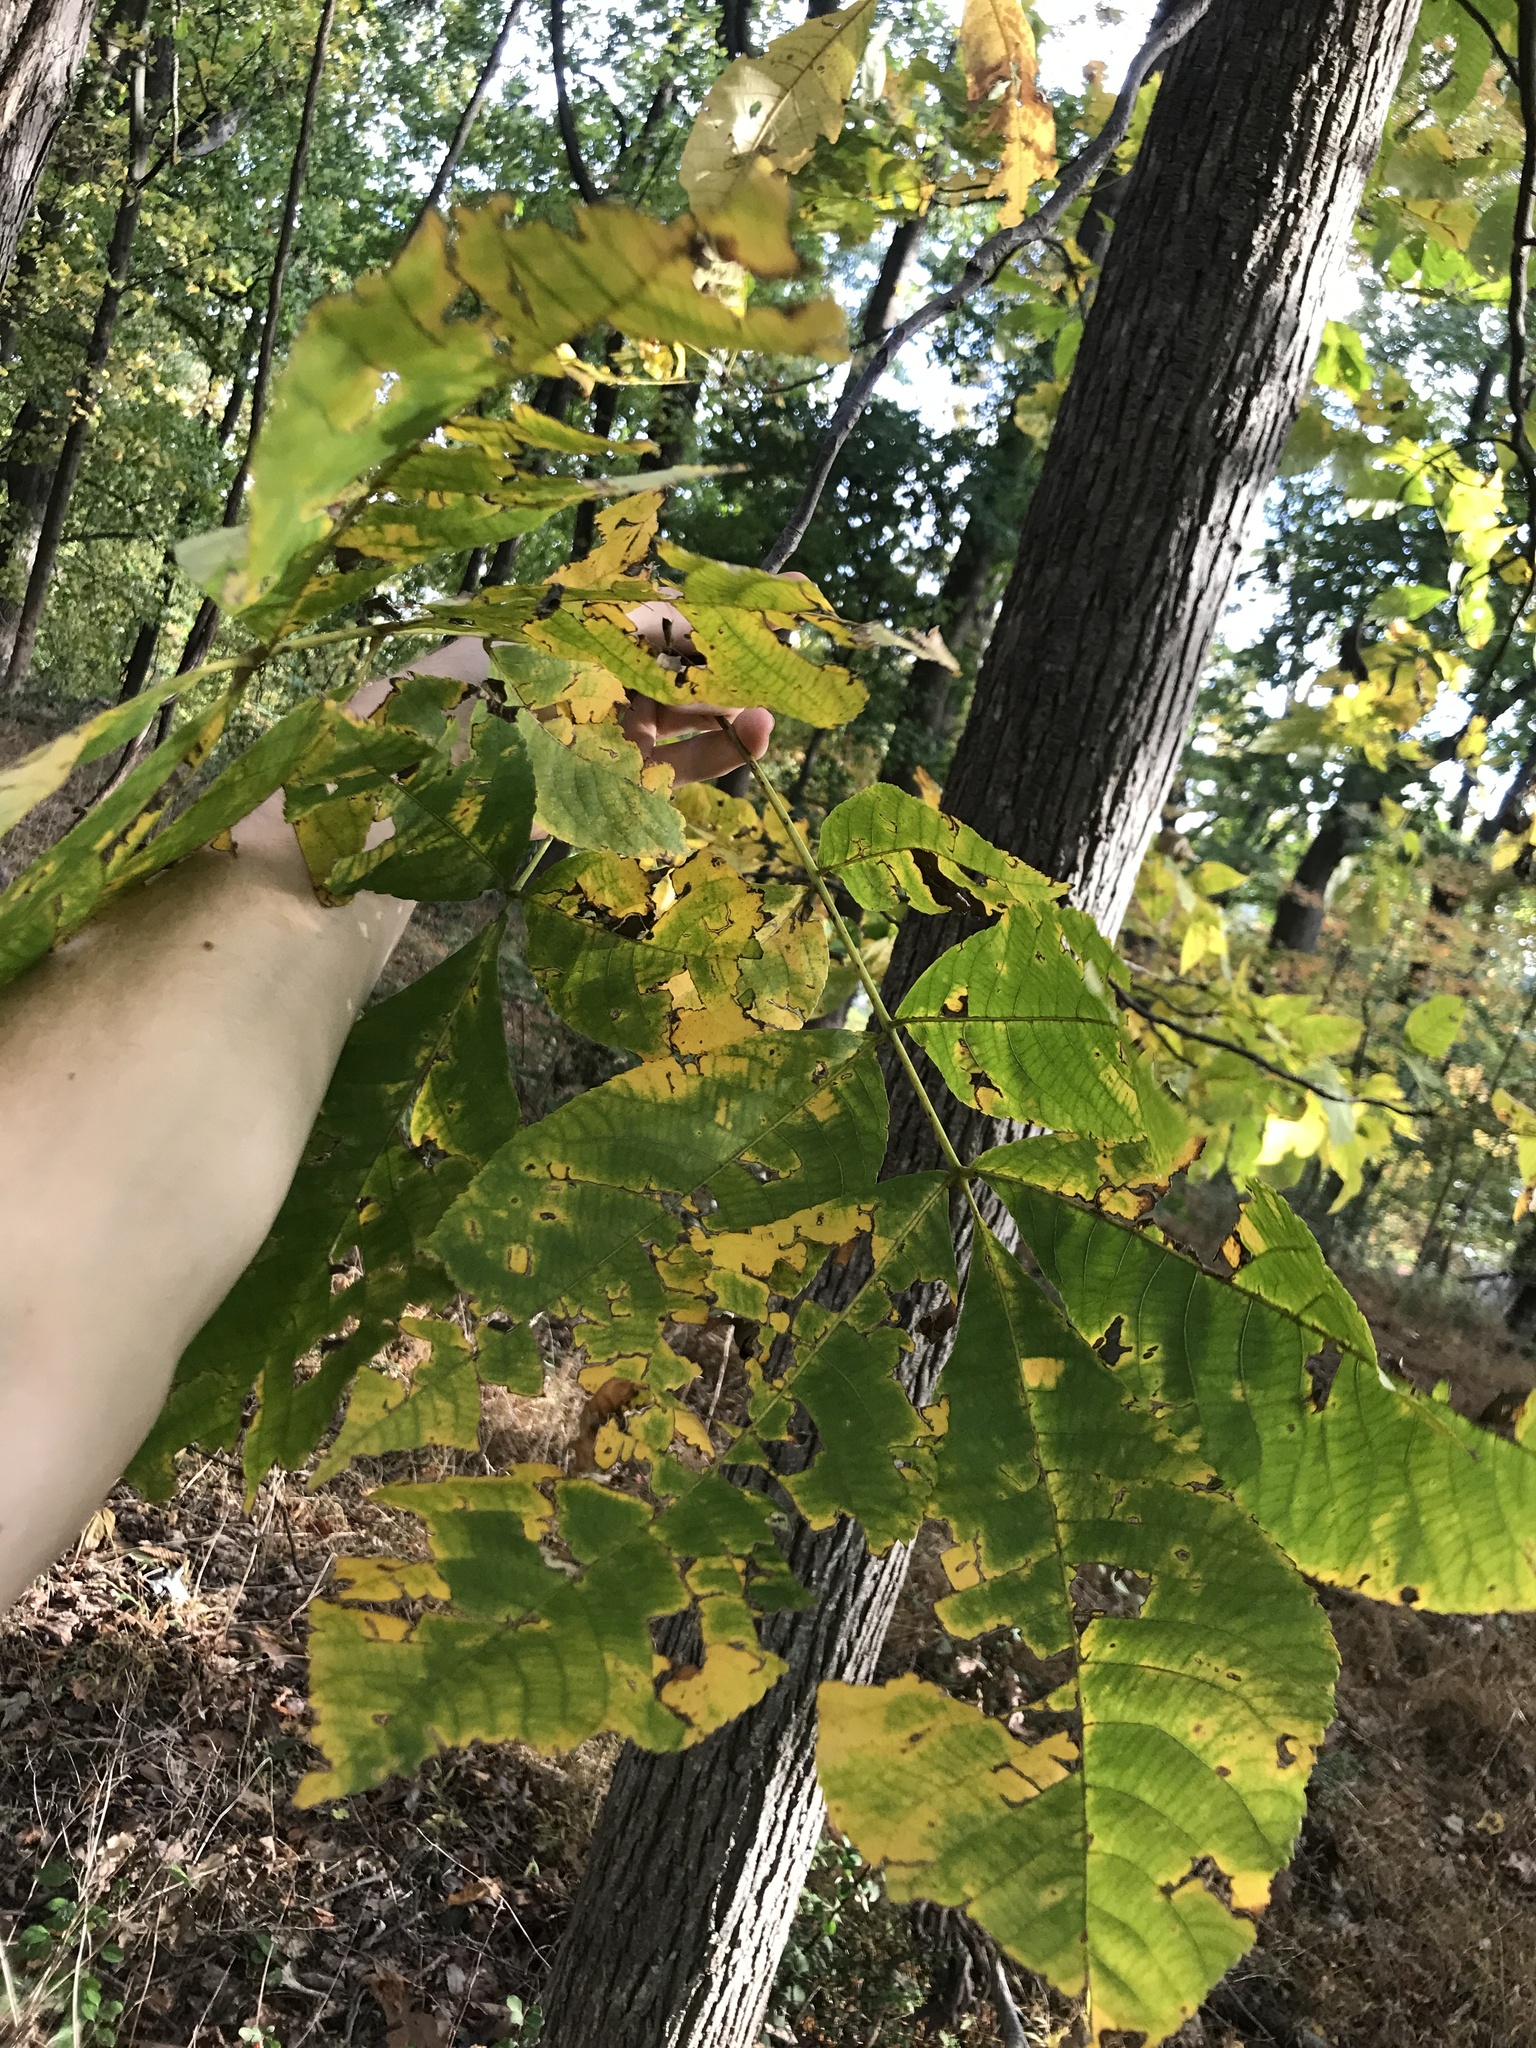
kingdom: Plantae
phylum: Tracheophyta
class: Magnoliopsida
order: Fagales
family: Juglandaceae
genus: Carya
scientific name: Carya glabra
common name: Pignut hickory
